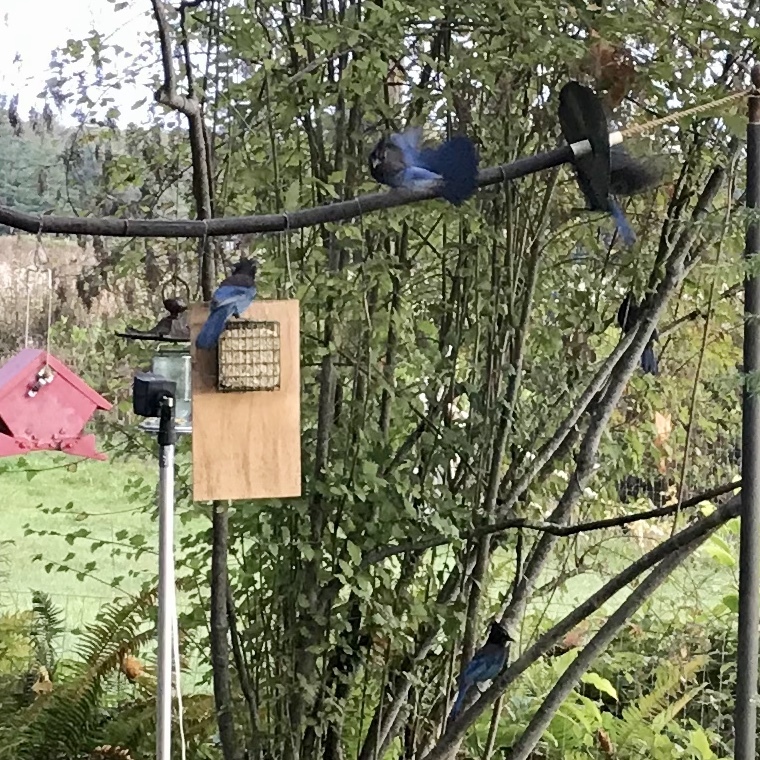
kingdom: Animalia
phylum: Chordata
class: Aves
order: Passeriformes
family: Corvidae
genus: Cyanocitta
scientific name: Cyanocitta stelleri
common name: Steller's jay
